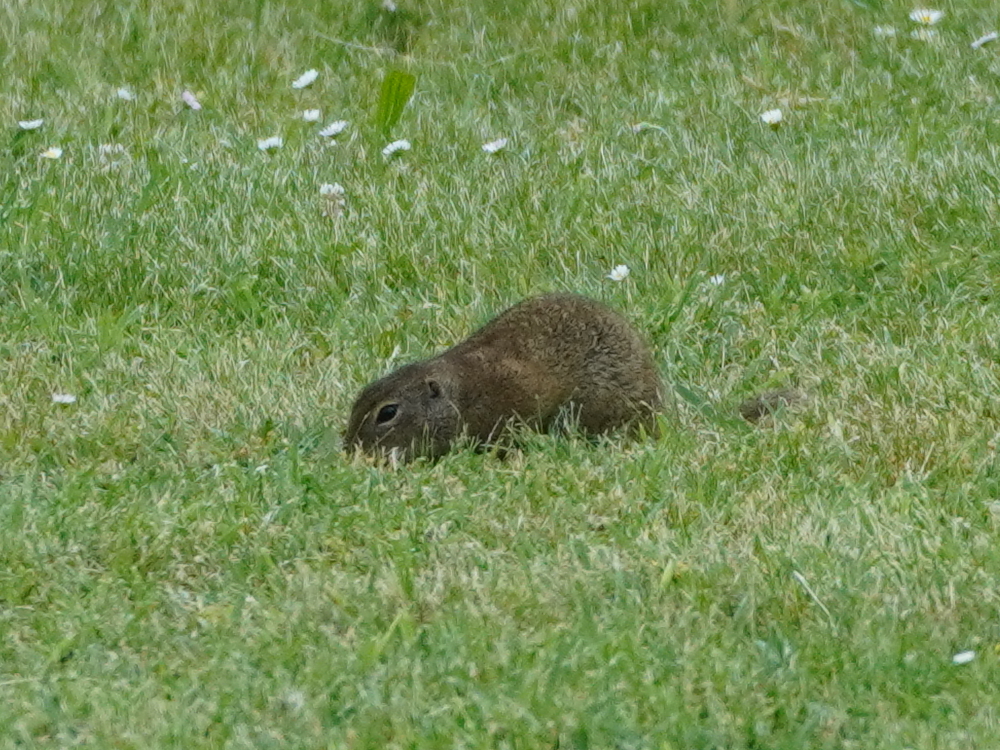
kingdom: Animalia
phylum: Chordata
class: Mammalia
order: Rodentia
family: Sciuridae
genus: Spermophilus
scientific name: Spermophilus citellus
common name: European ground squirrel
